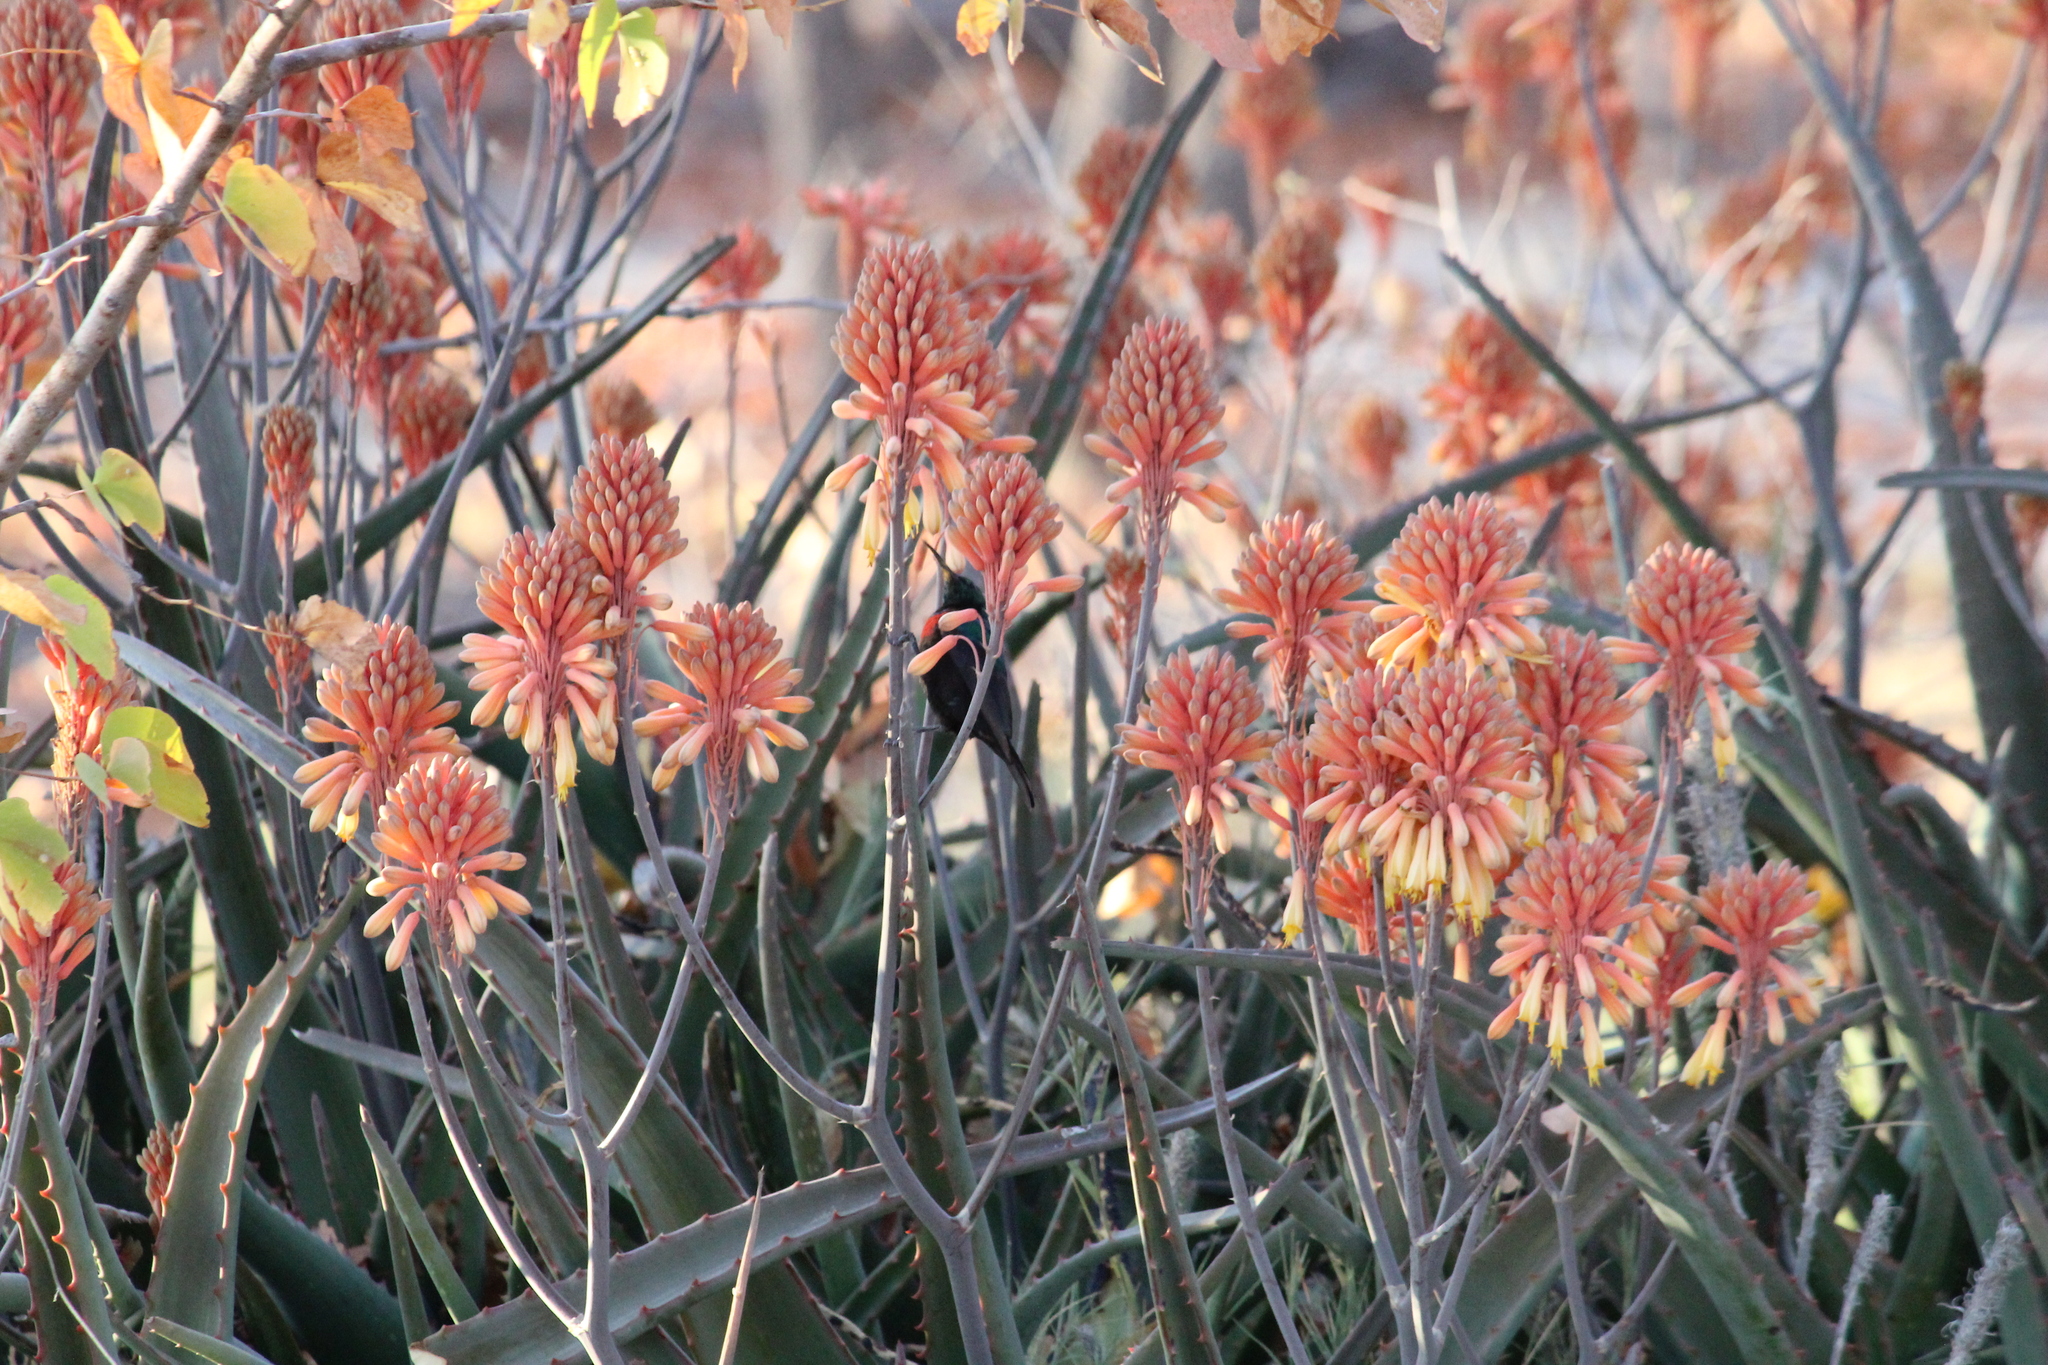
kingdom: Animalia
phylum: Chordata
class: Aves
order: Passeriformes
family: Nectariniidae
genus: Cinnyris
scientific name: Cinnyris mariquensis
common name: Marico sunbird
